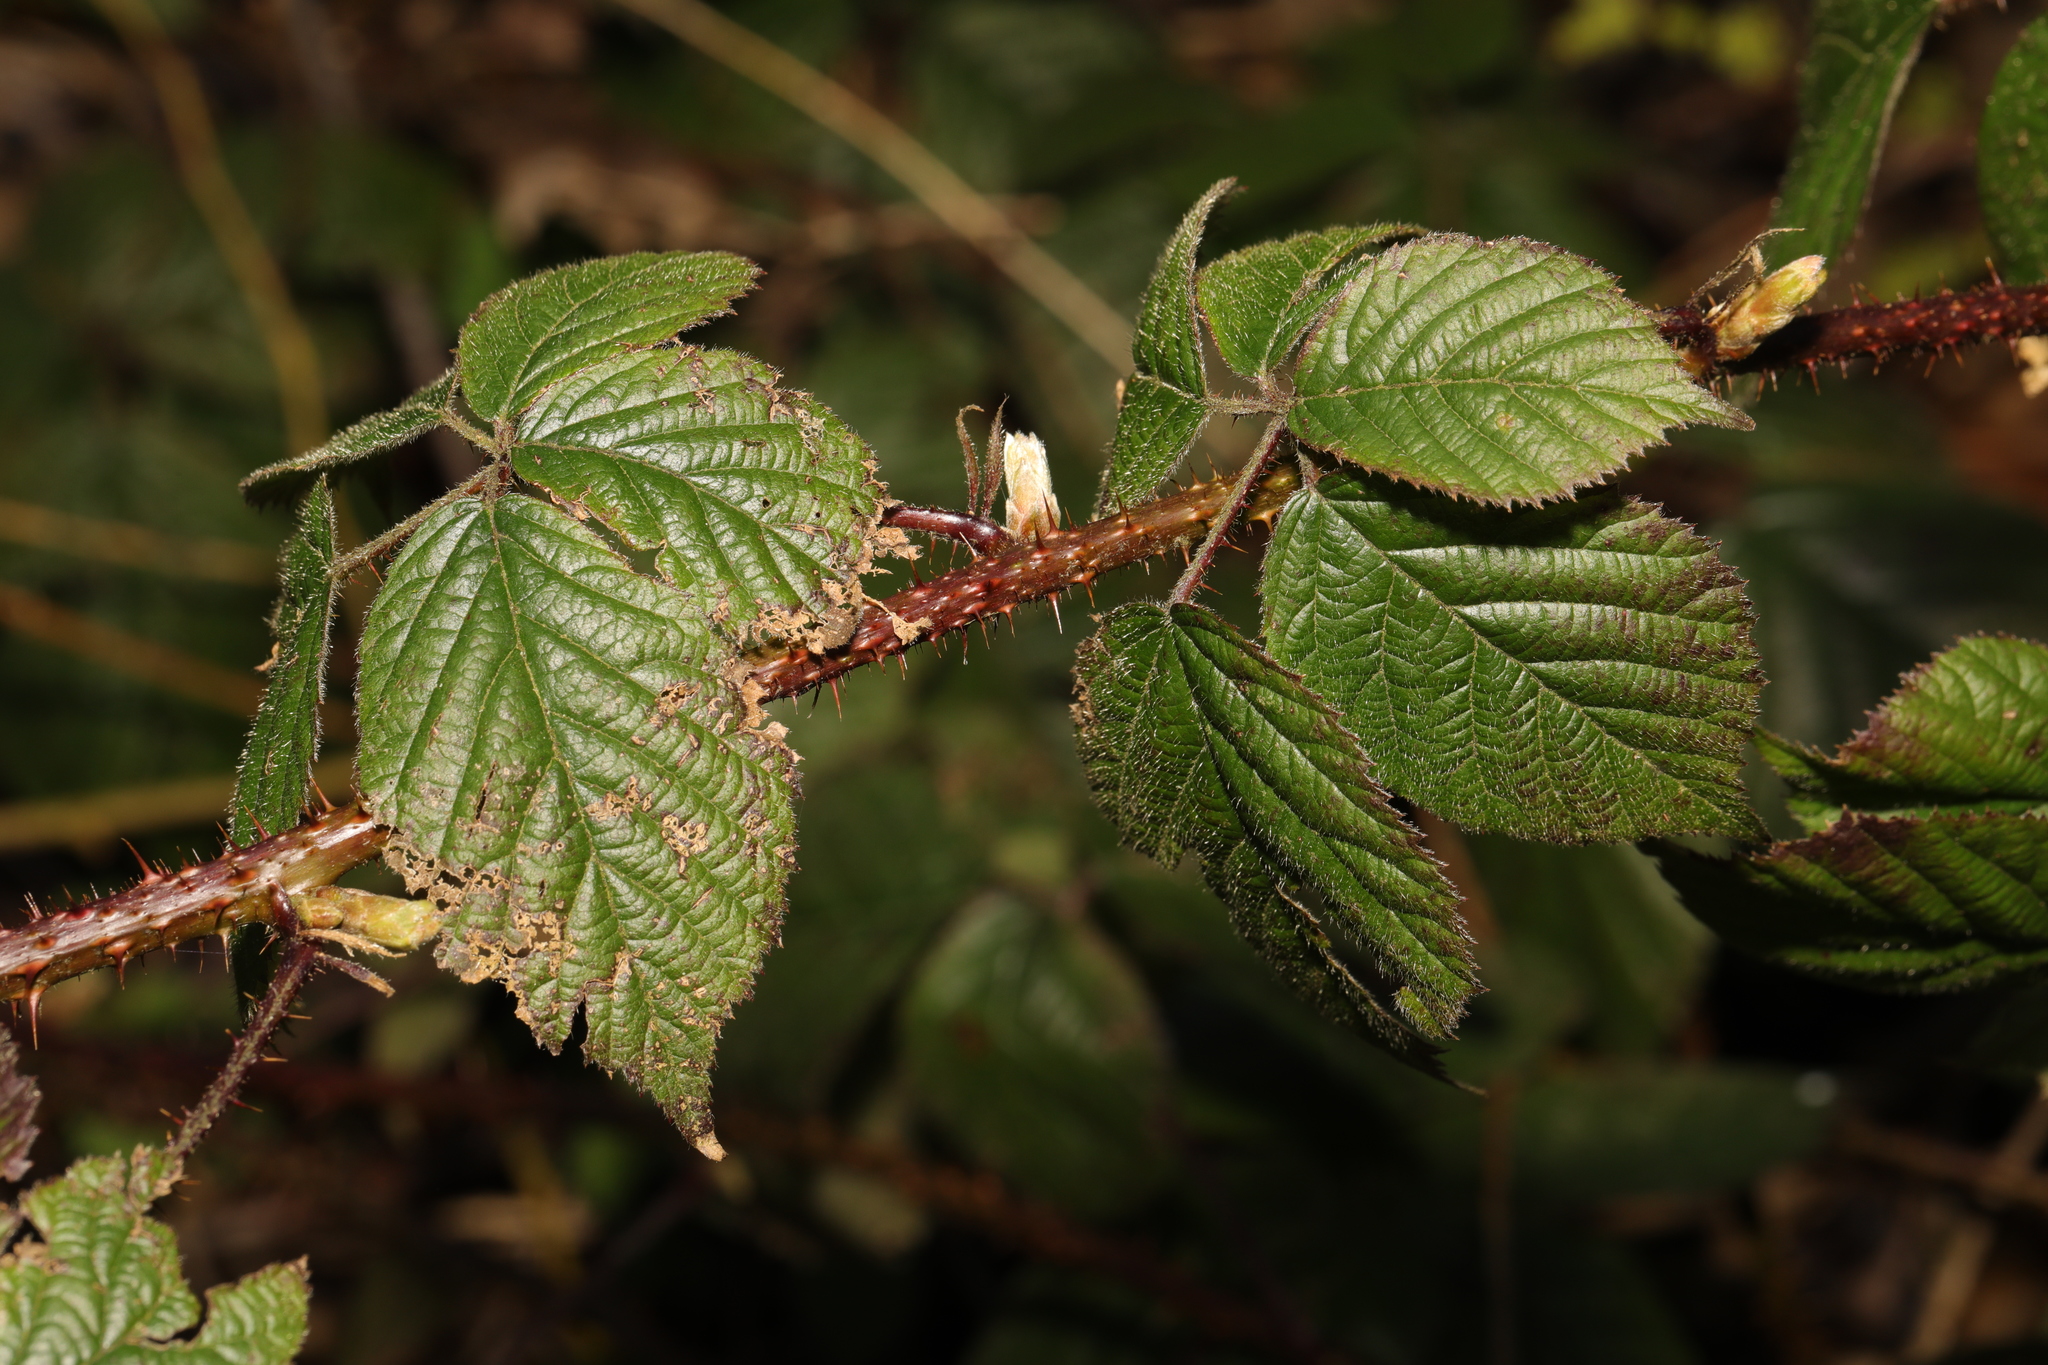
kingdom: Plantae
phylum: Tracheophyta
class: Magnoliopsida
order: Rosales
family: Rosaceae
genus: Rubus
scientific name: Rubus intensior
